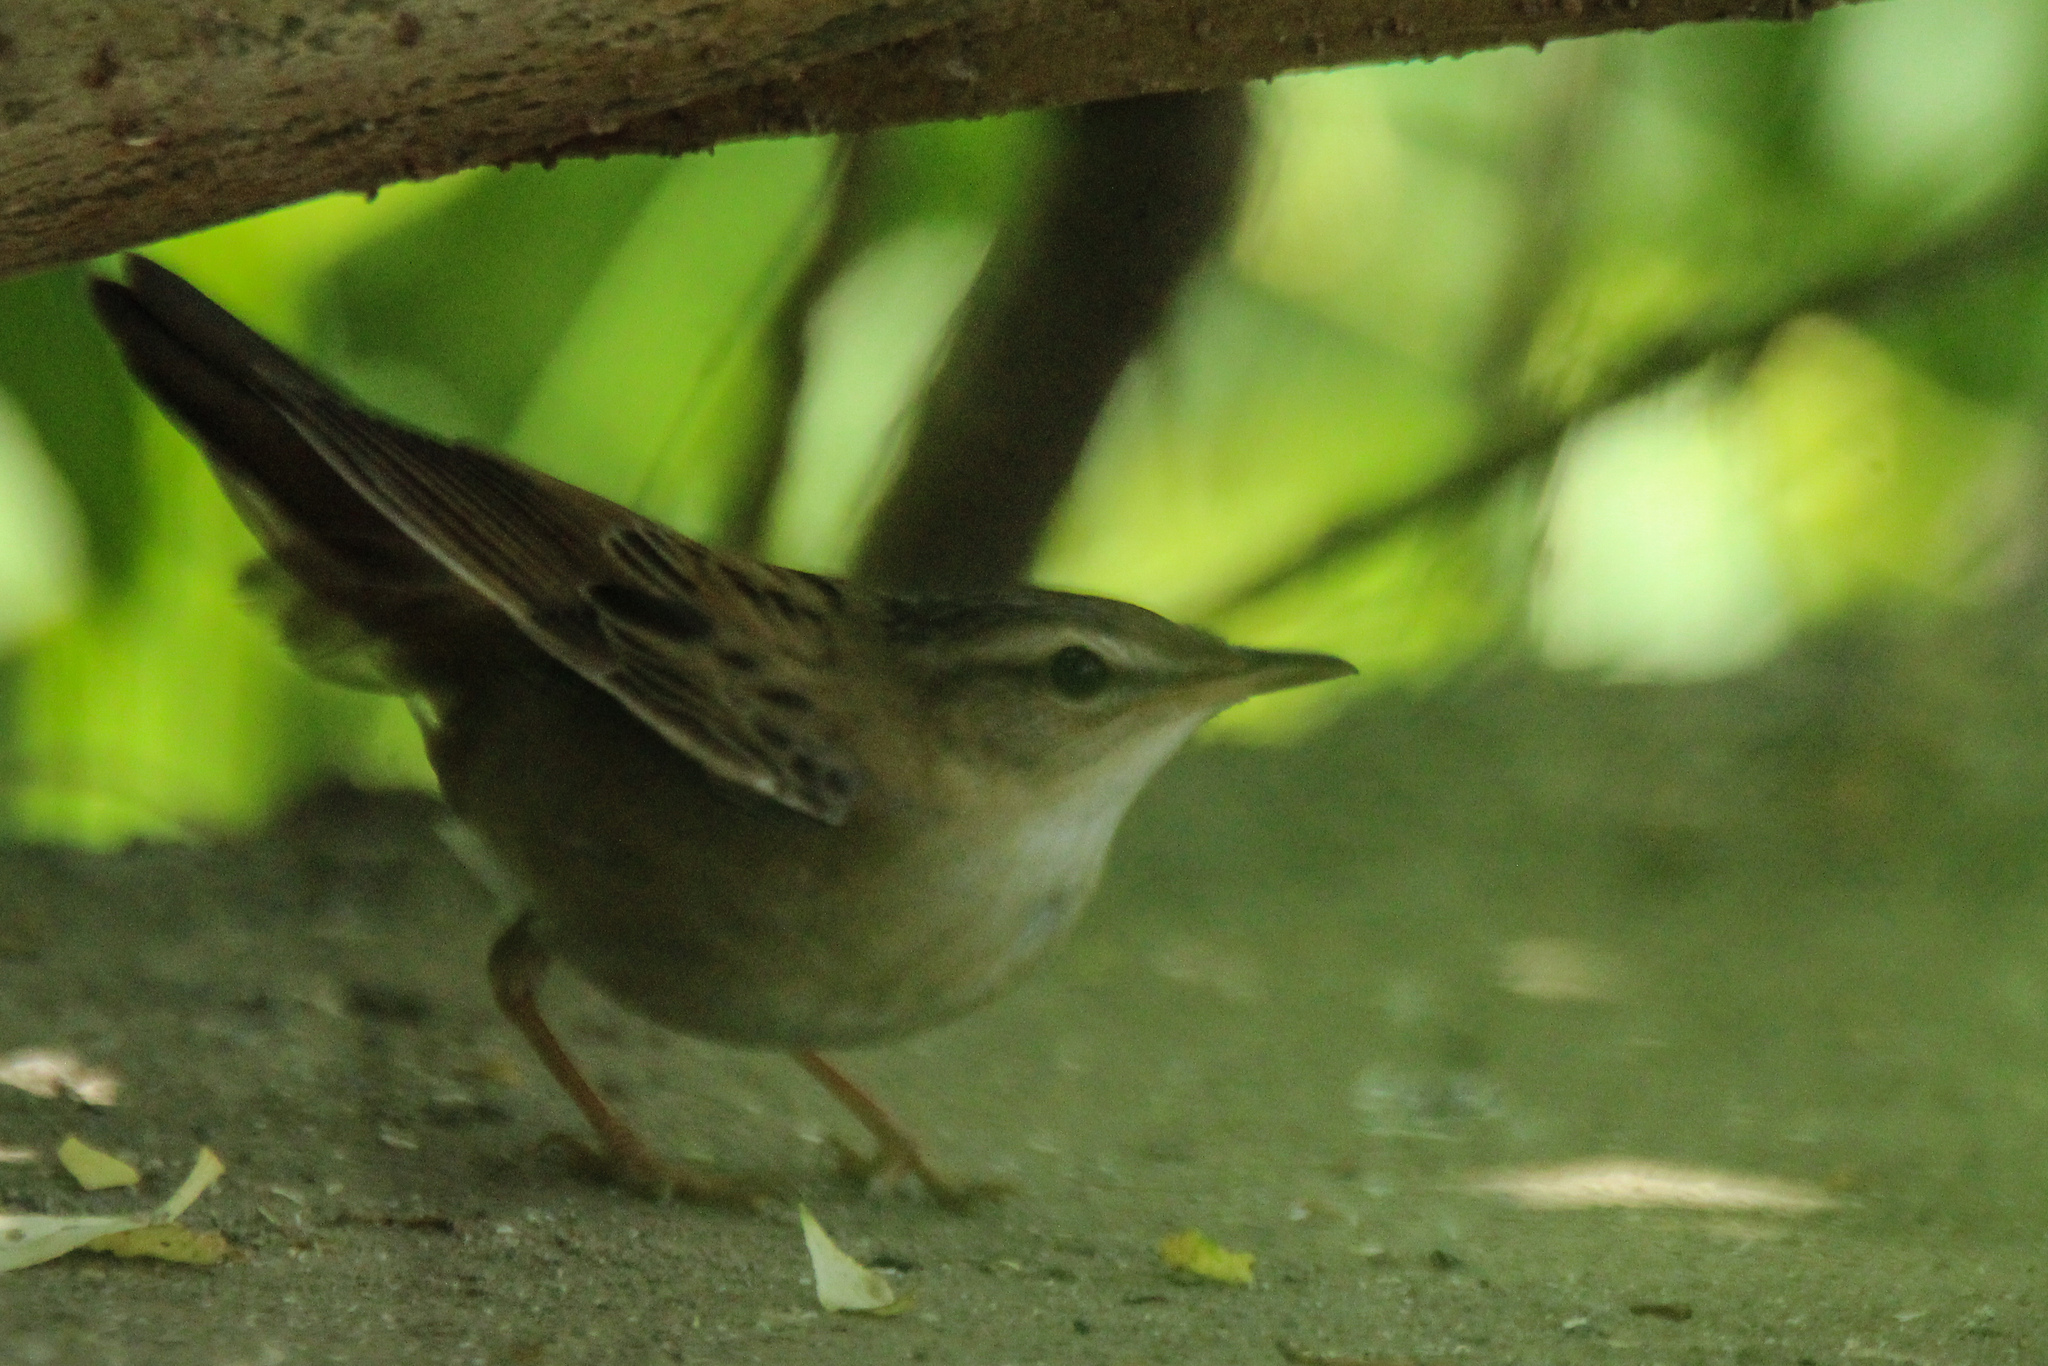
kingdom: Animalia
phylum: Chordata
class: Aves
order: Passeriformes
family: Locustellidae
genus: Locustella
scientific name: Locustella certhiola
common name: Pallas's grasshopper warbler
